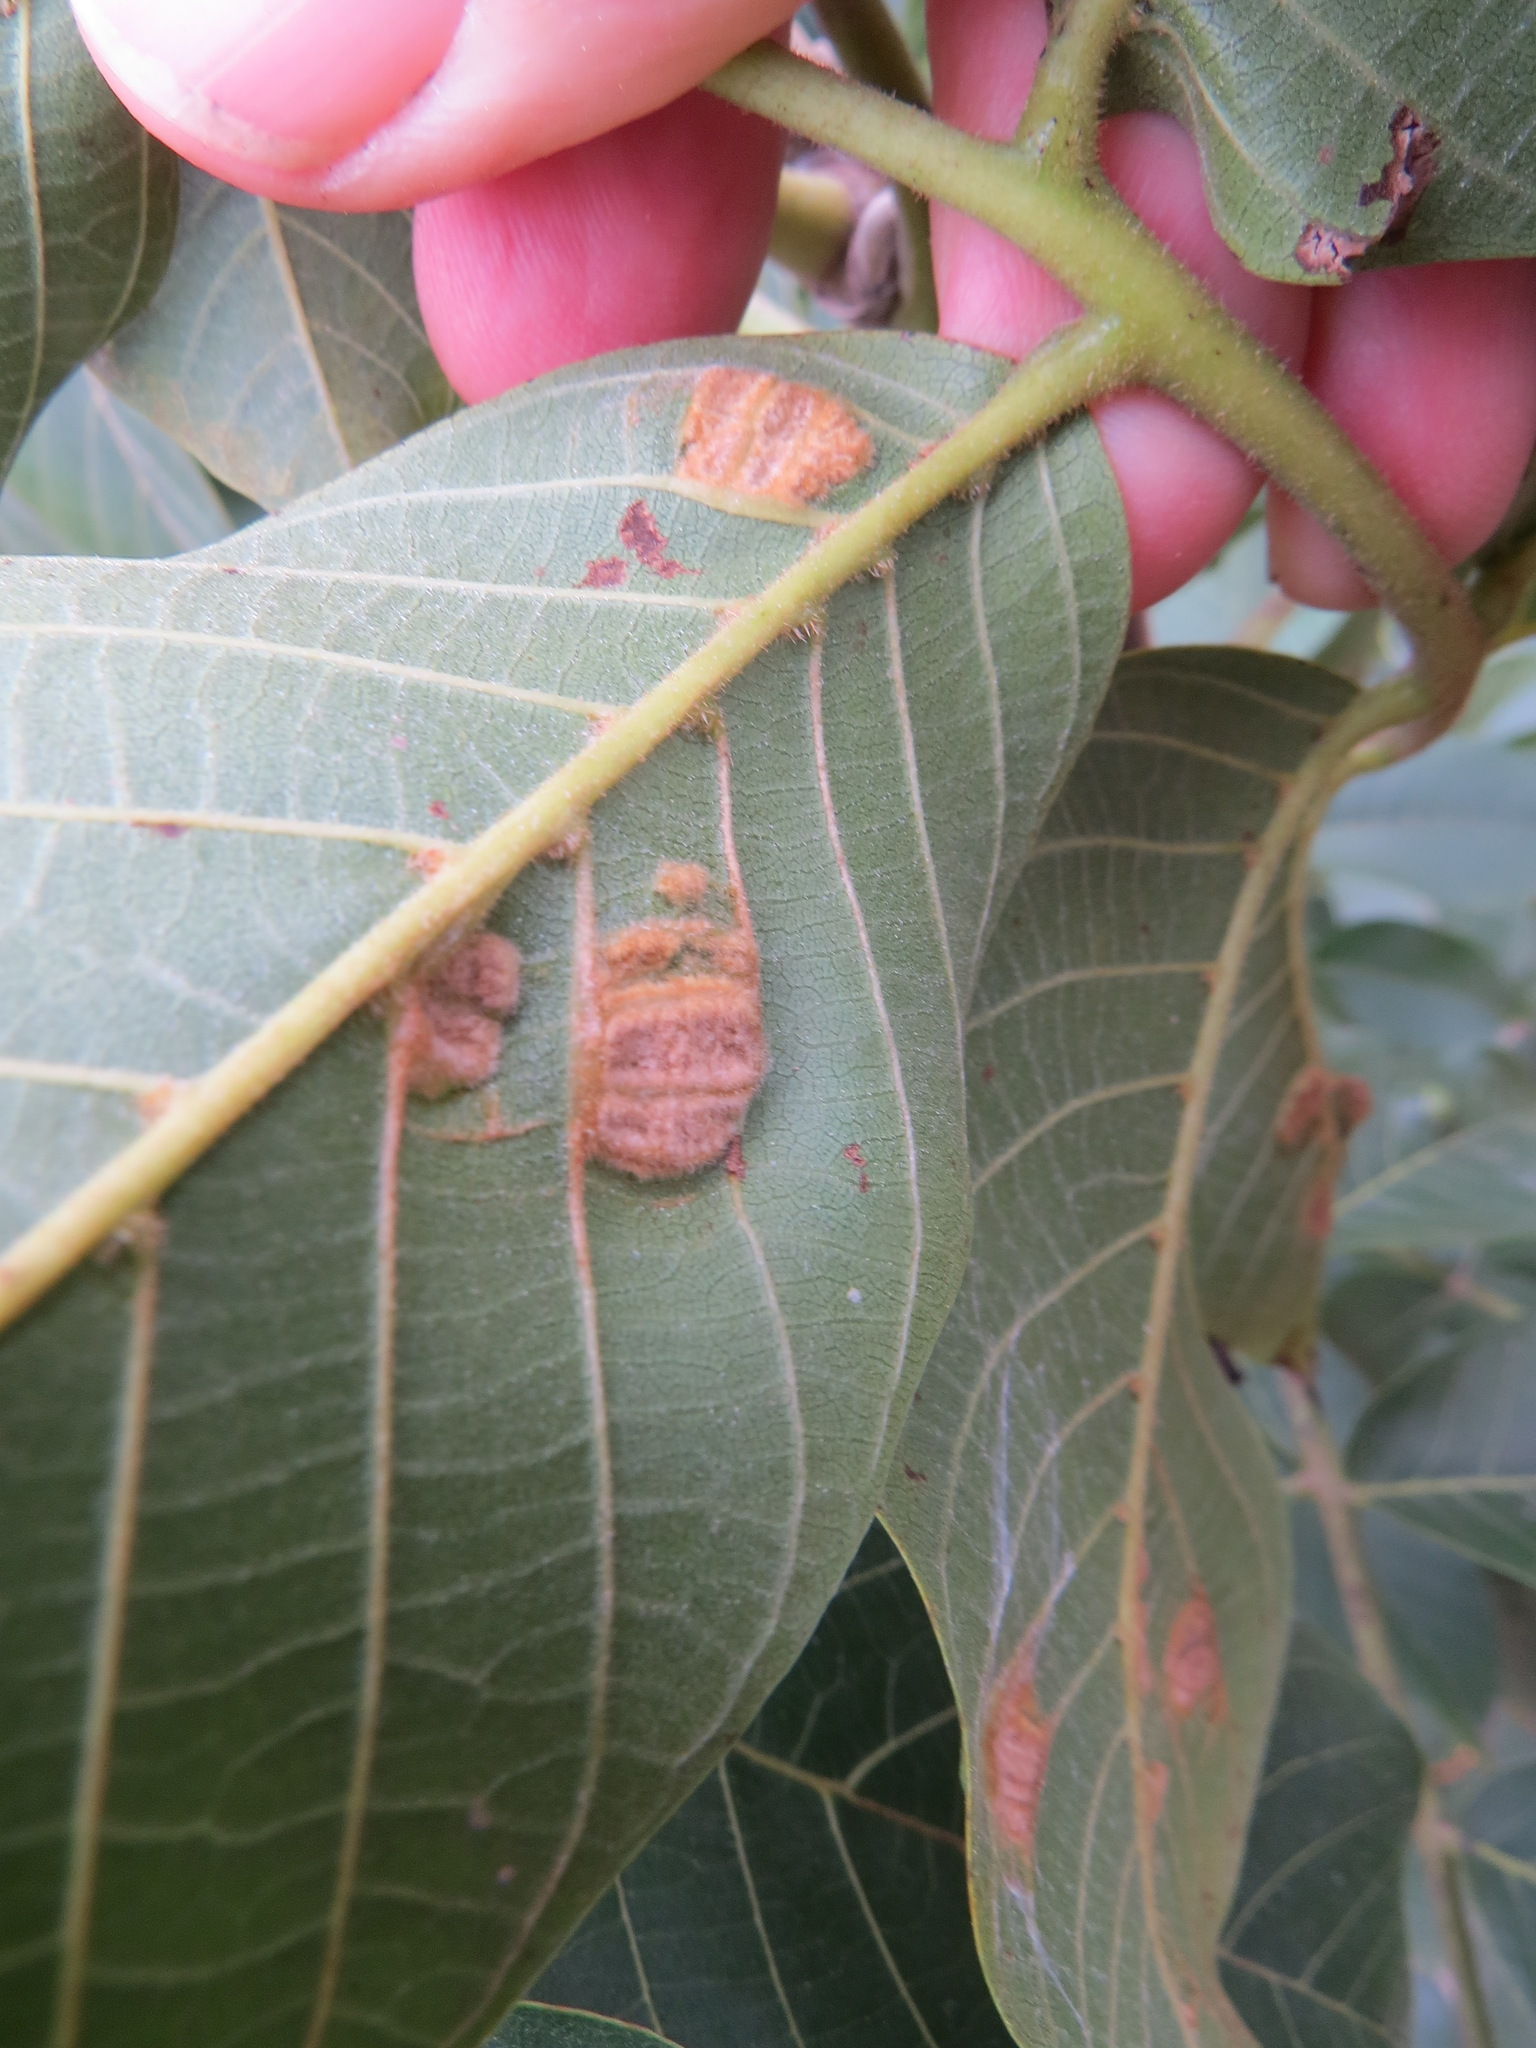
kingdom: Animalia
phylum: Arthropoda
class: Arachnida
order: Trombidiformes
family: Eriophyidae
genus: Aceria
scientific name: Aceria erinea
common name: Persian walnut erineum mite
